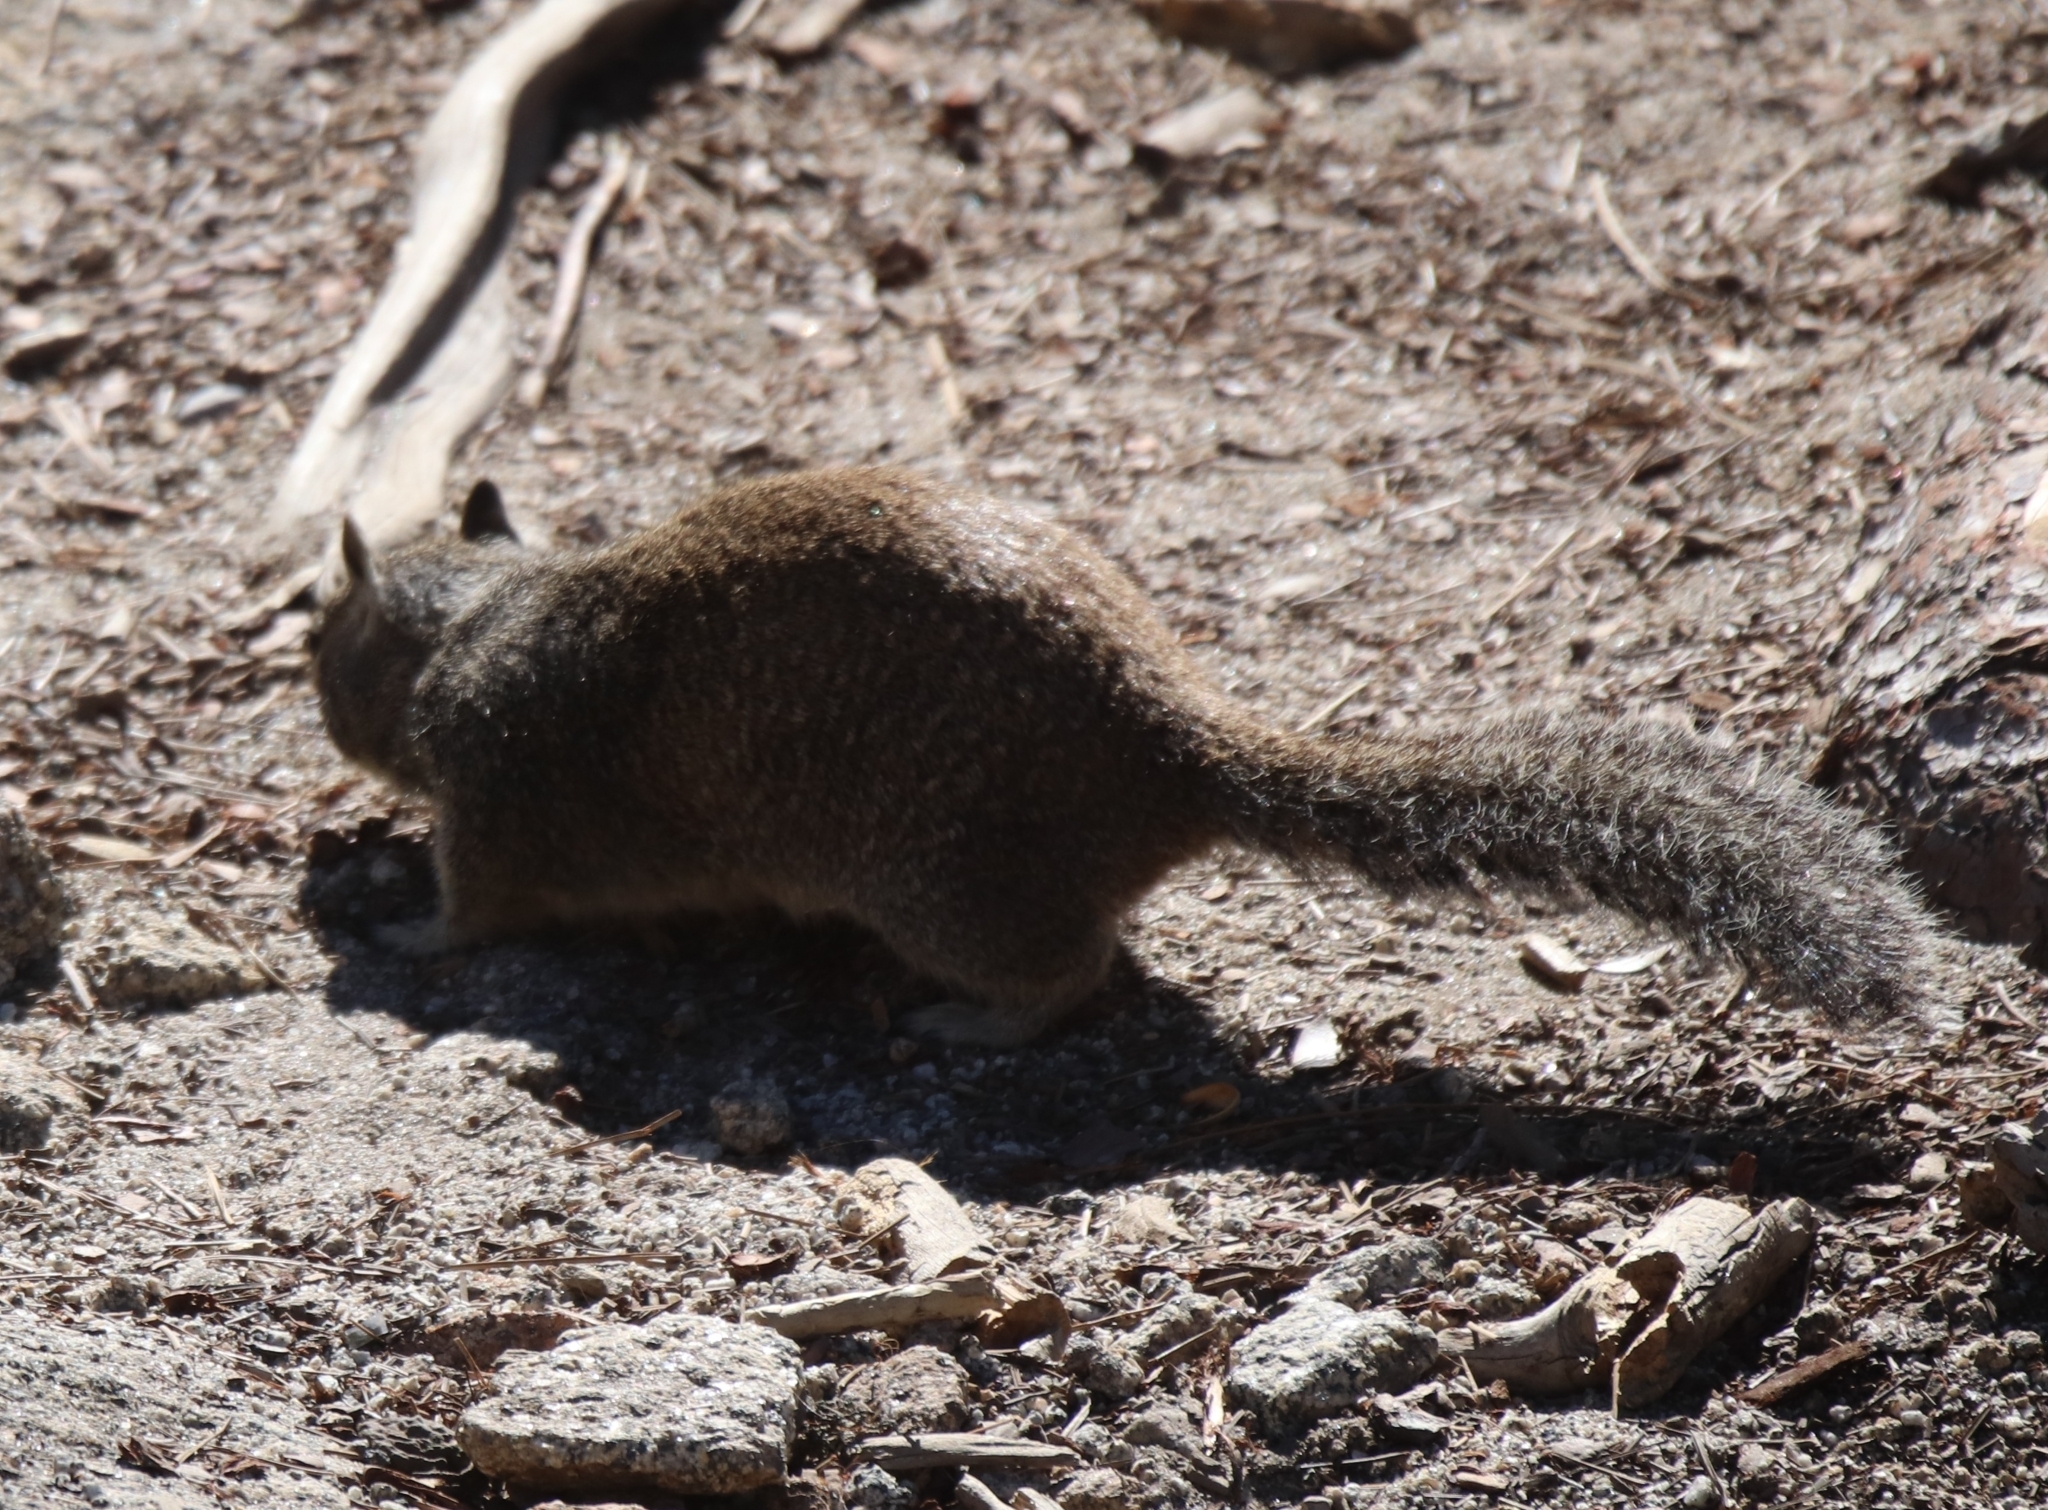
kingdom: Animalia
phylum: Chordata
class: Mammalia
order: Rodentia
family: Sciuridae
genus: Otospermophilus
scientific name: Otospermophilus beecheyi
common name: California ground squirrel
